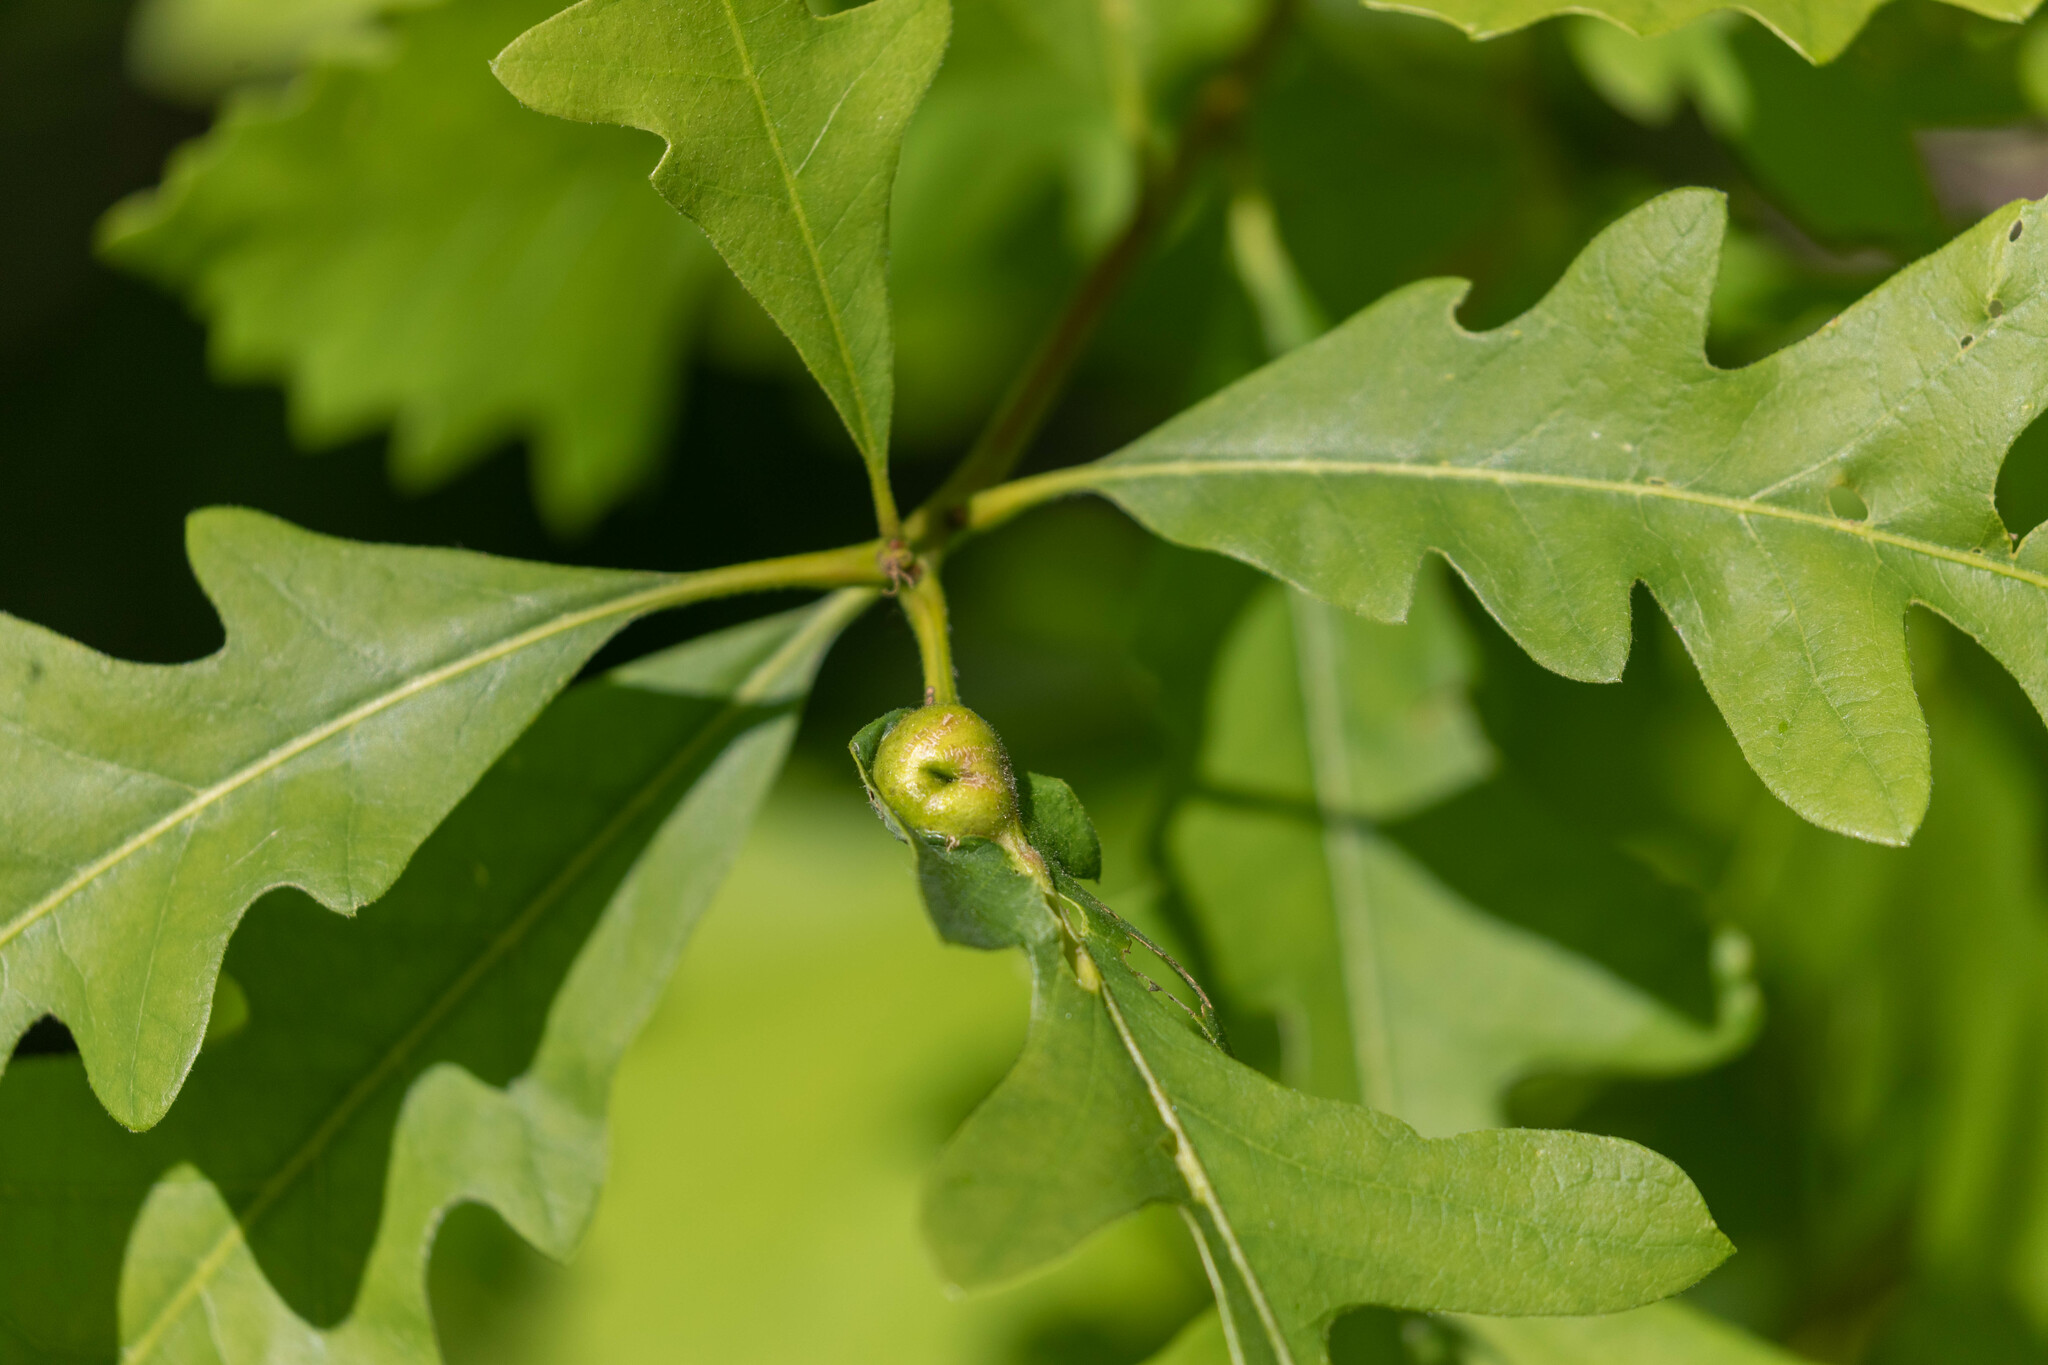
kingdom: Animalia
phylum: Arthropoda
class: Insecta
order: Hymenoptera
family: Cynipidae
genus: Andricus
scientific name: Andricus
